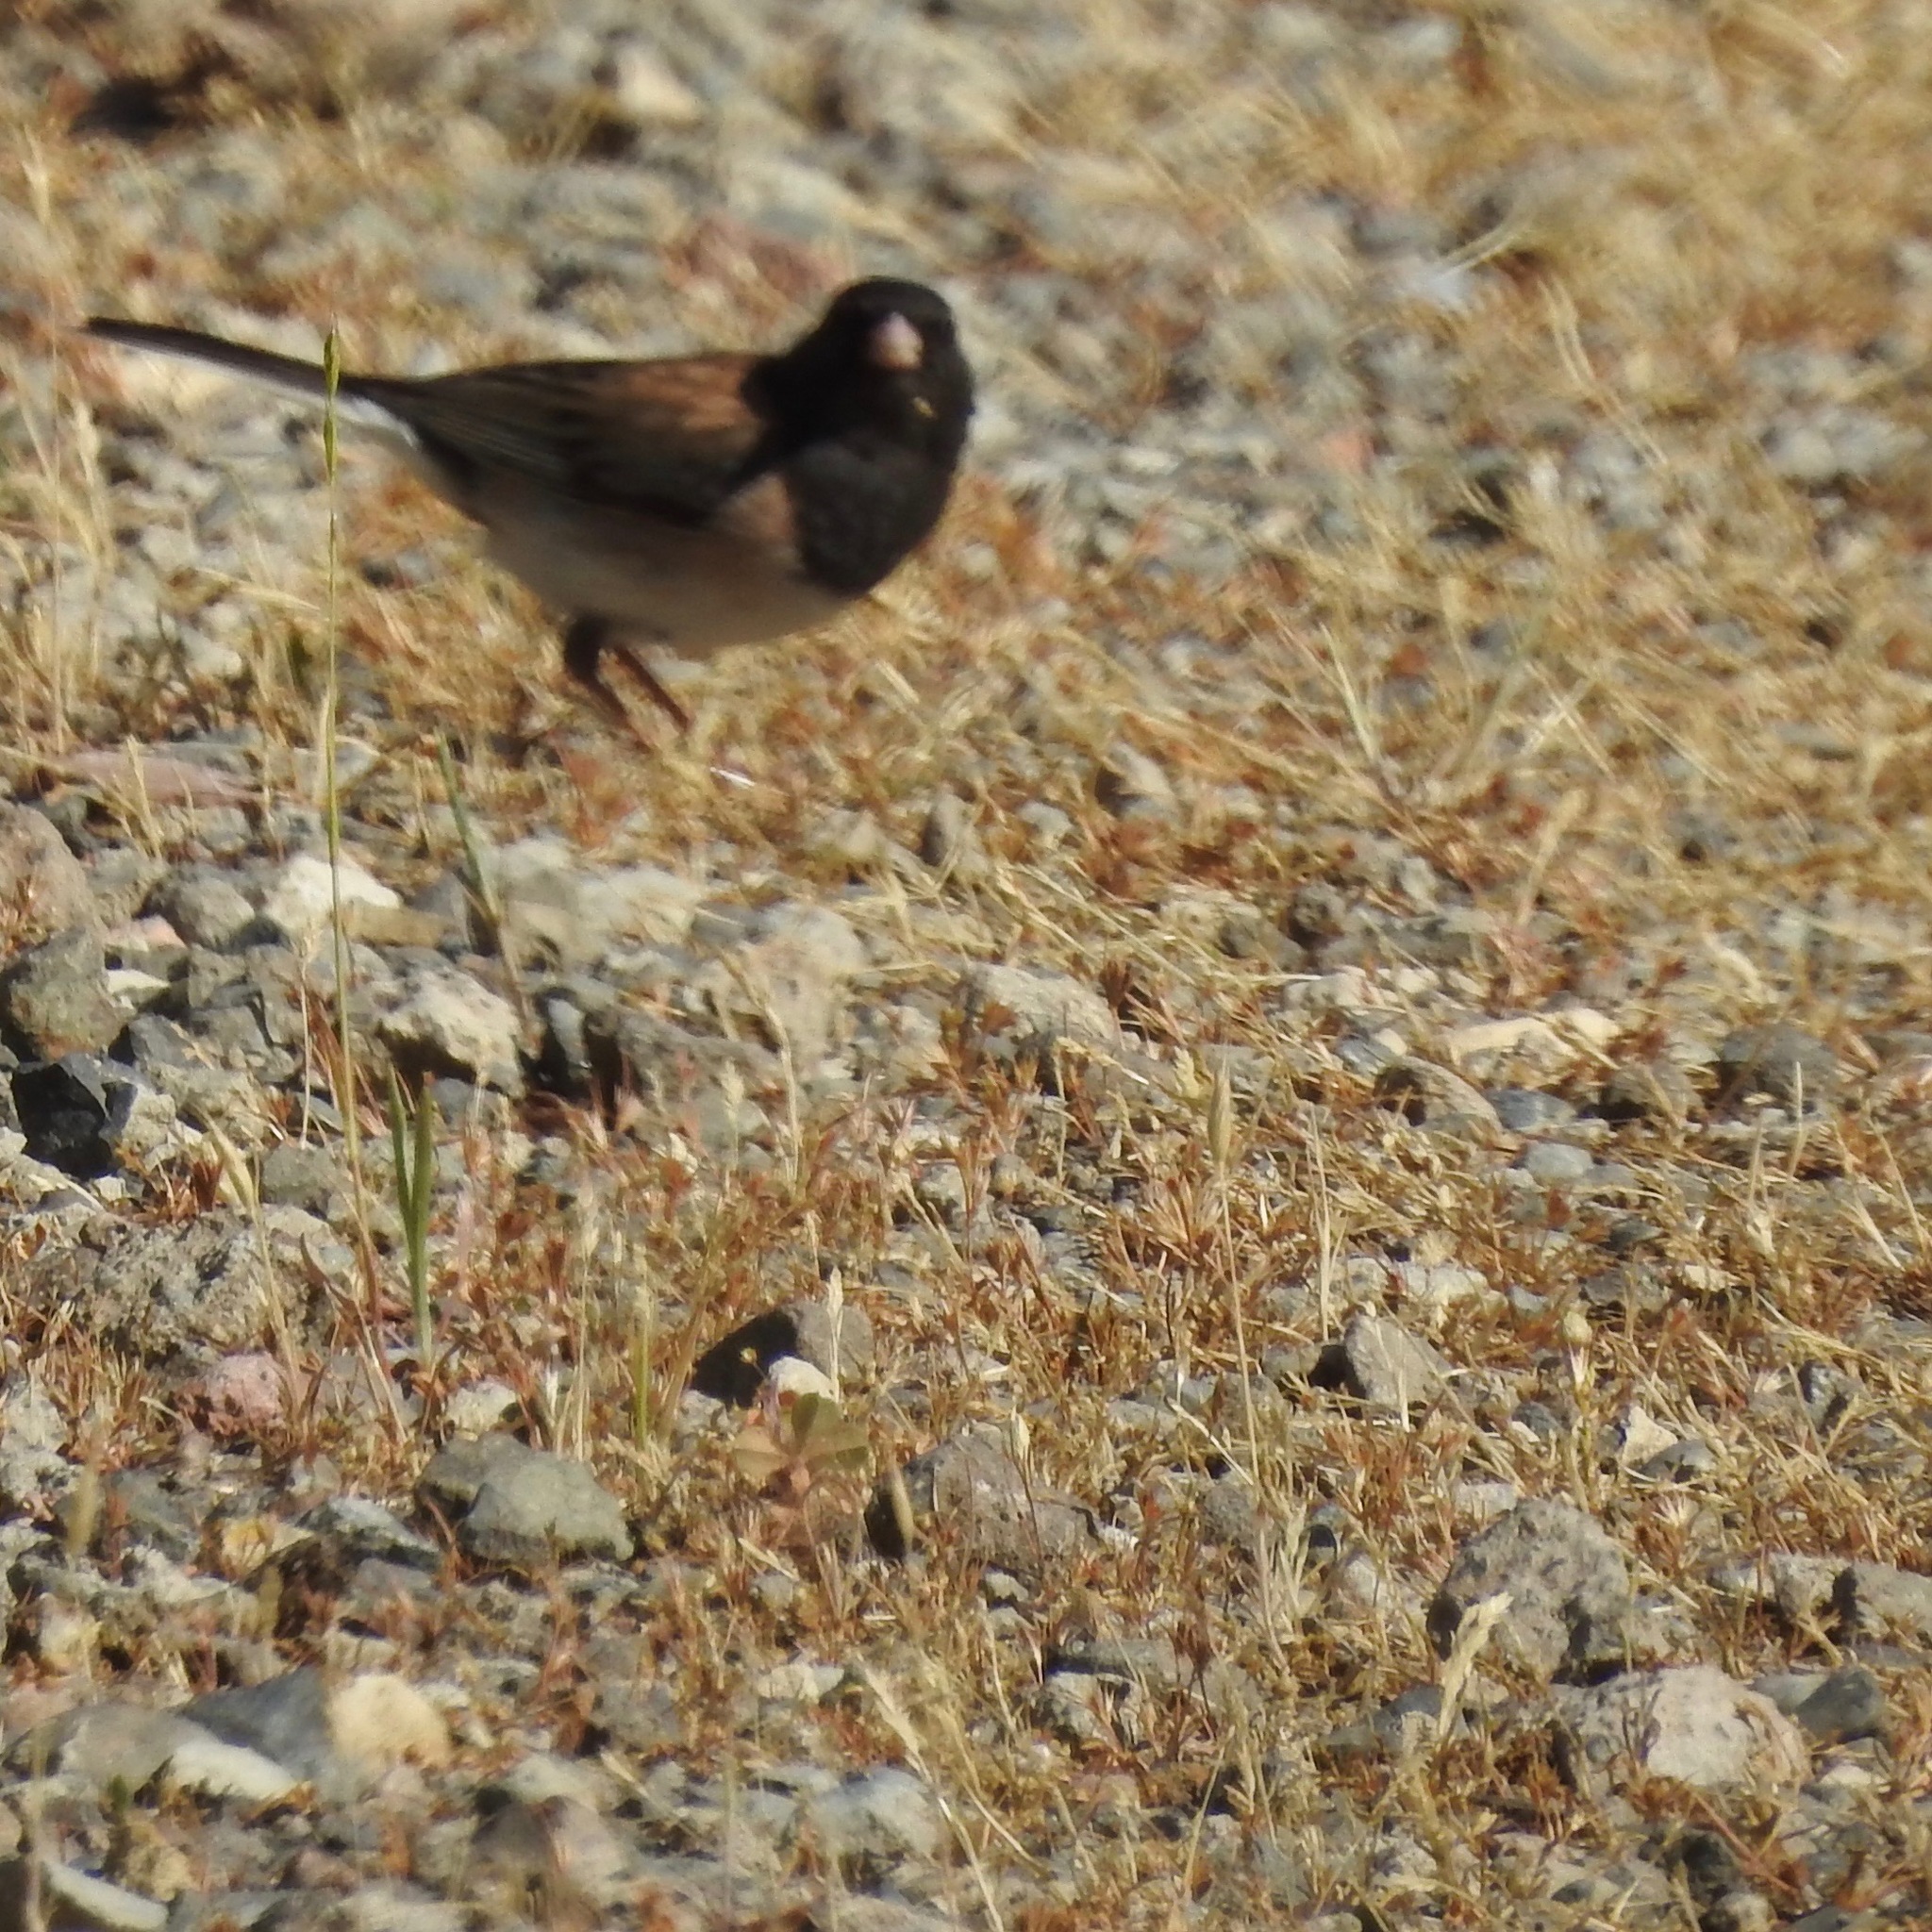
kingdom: Animalia
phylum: Chordata
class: Aves
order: Passeriformes
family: Passerellidae
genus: Junco
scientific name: Junco hyemalis
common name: Dark-eyed junco
